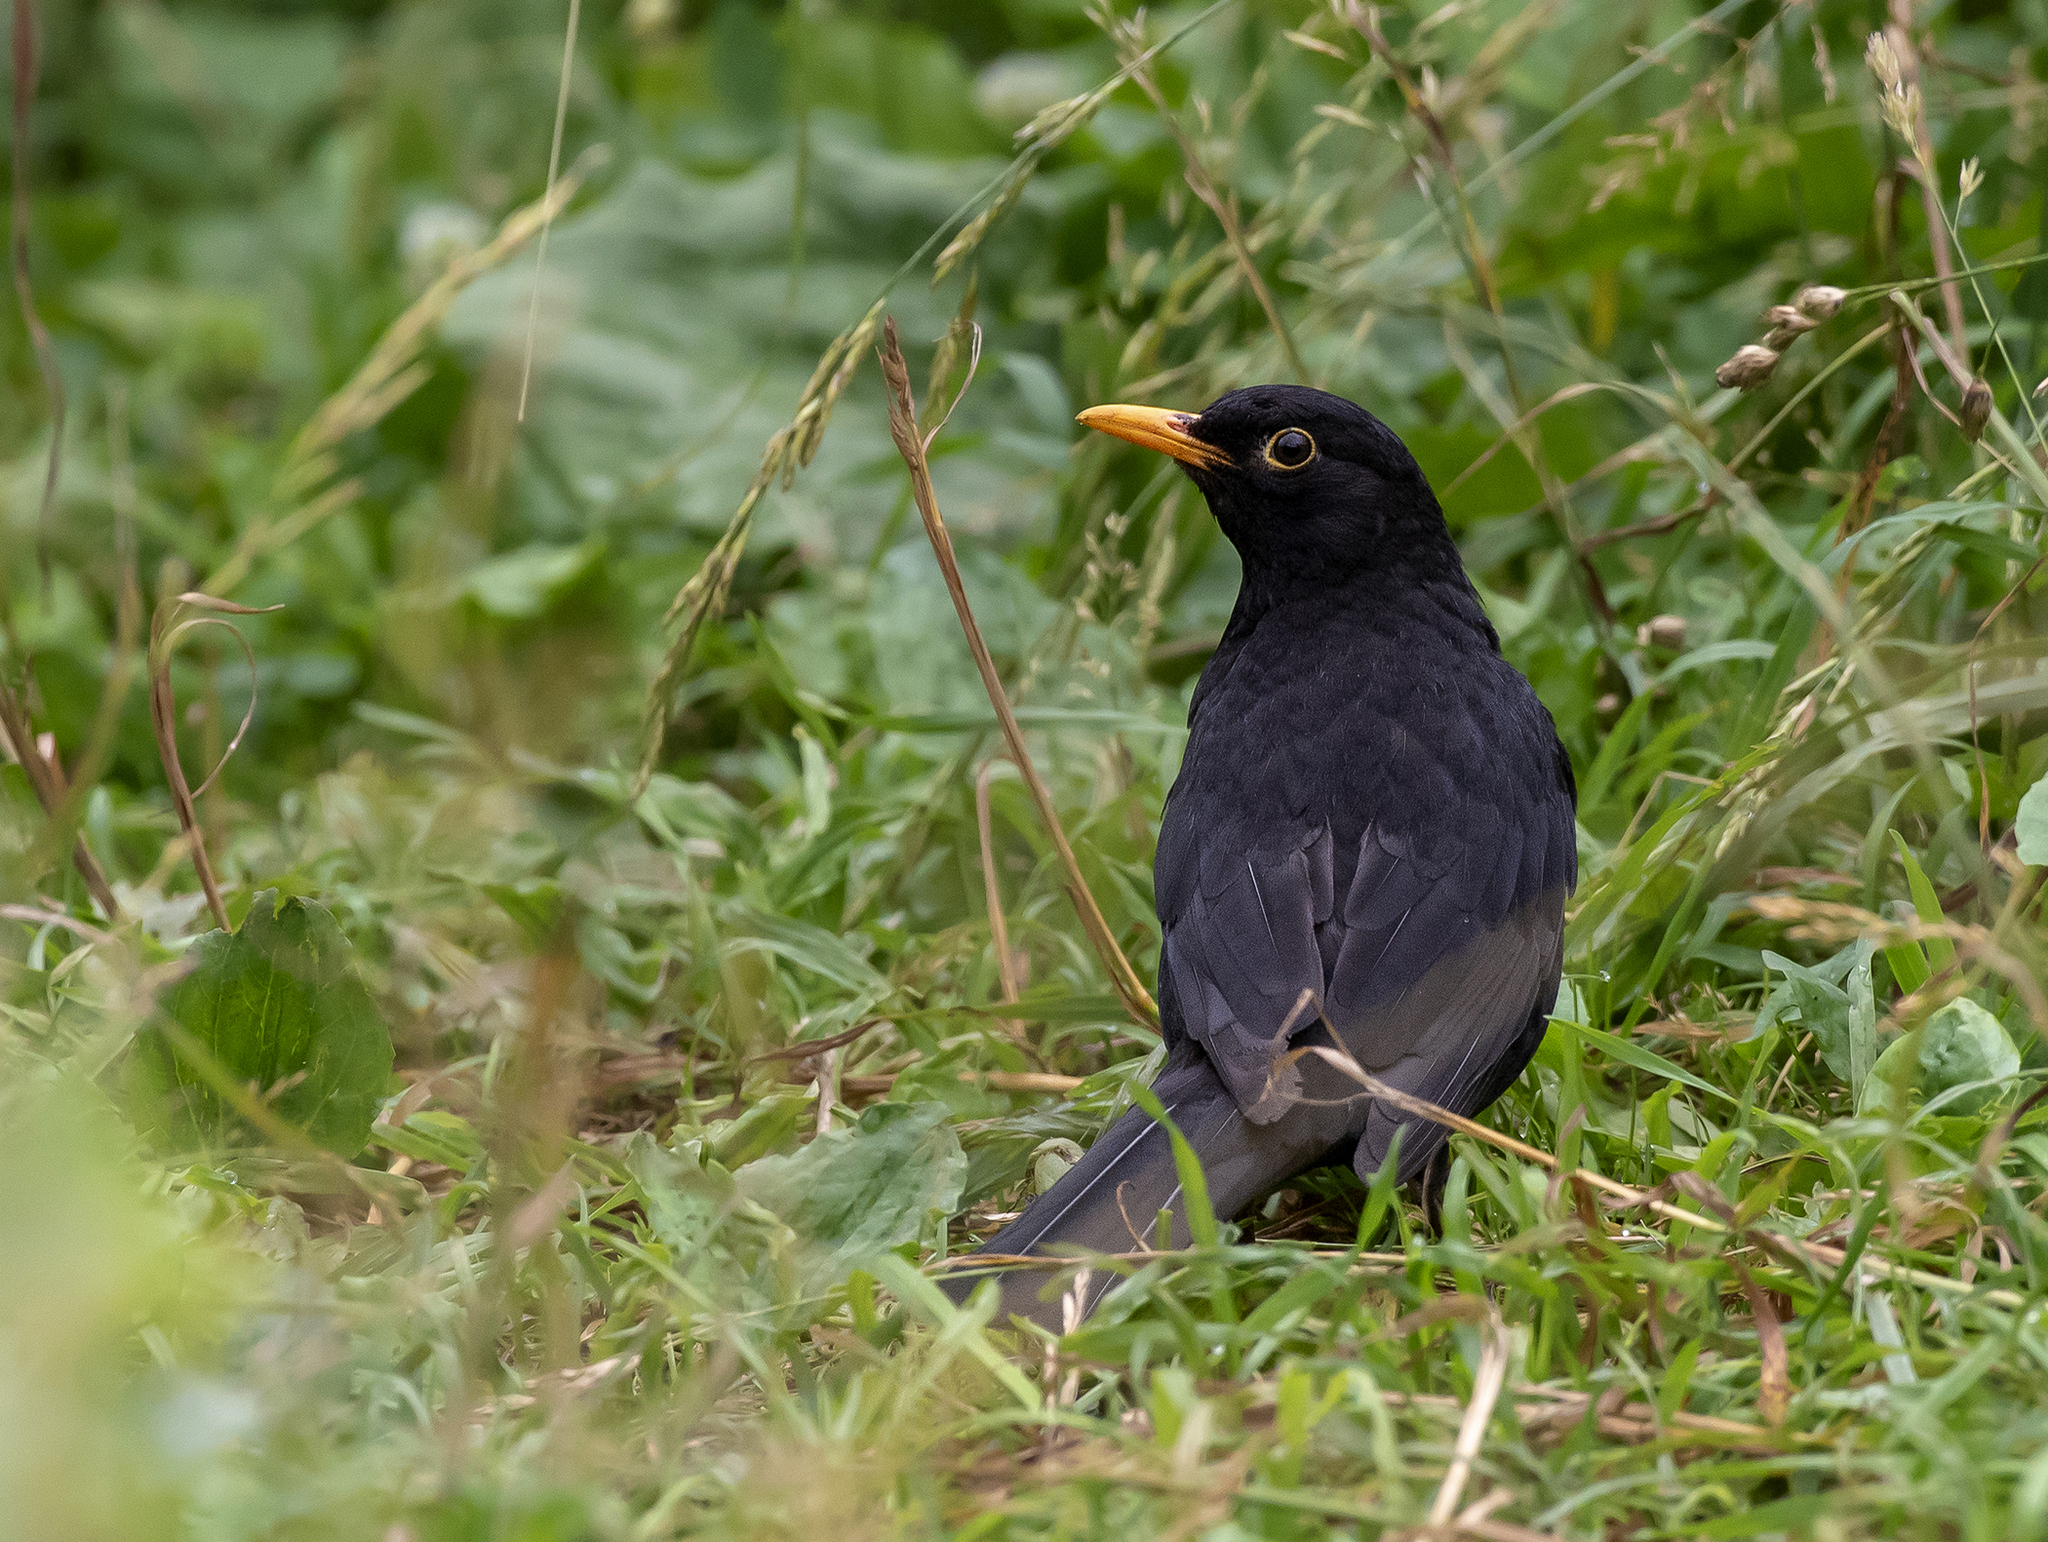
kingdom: Animalia
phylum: Chordata
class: Aves
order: Passeriformes
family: Turdidae
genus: Turdus
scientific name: Turdus merula
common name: Common blackbird
